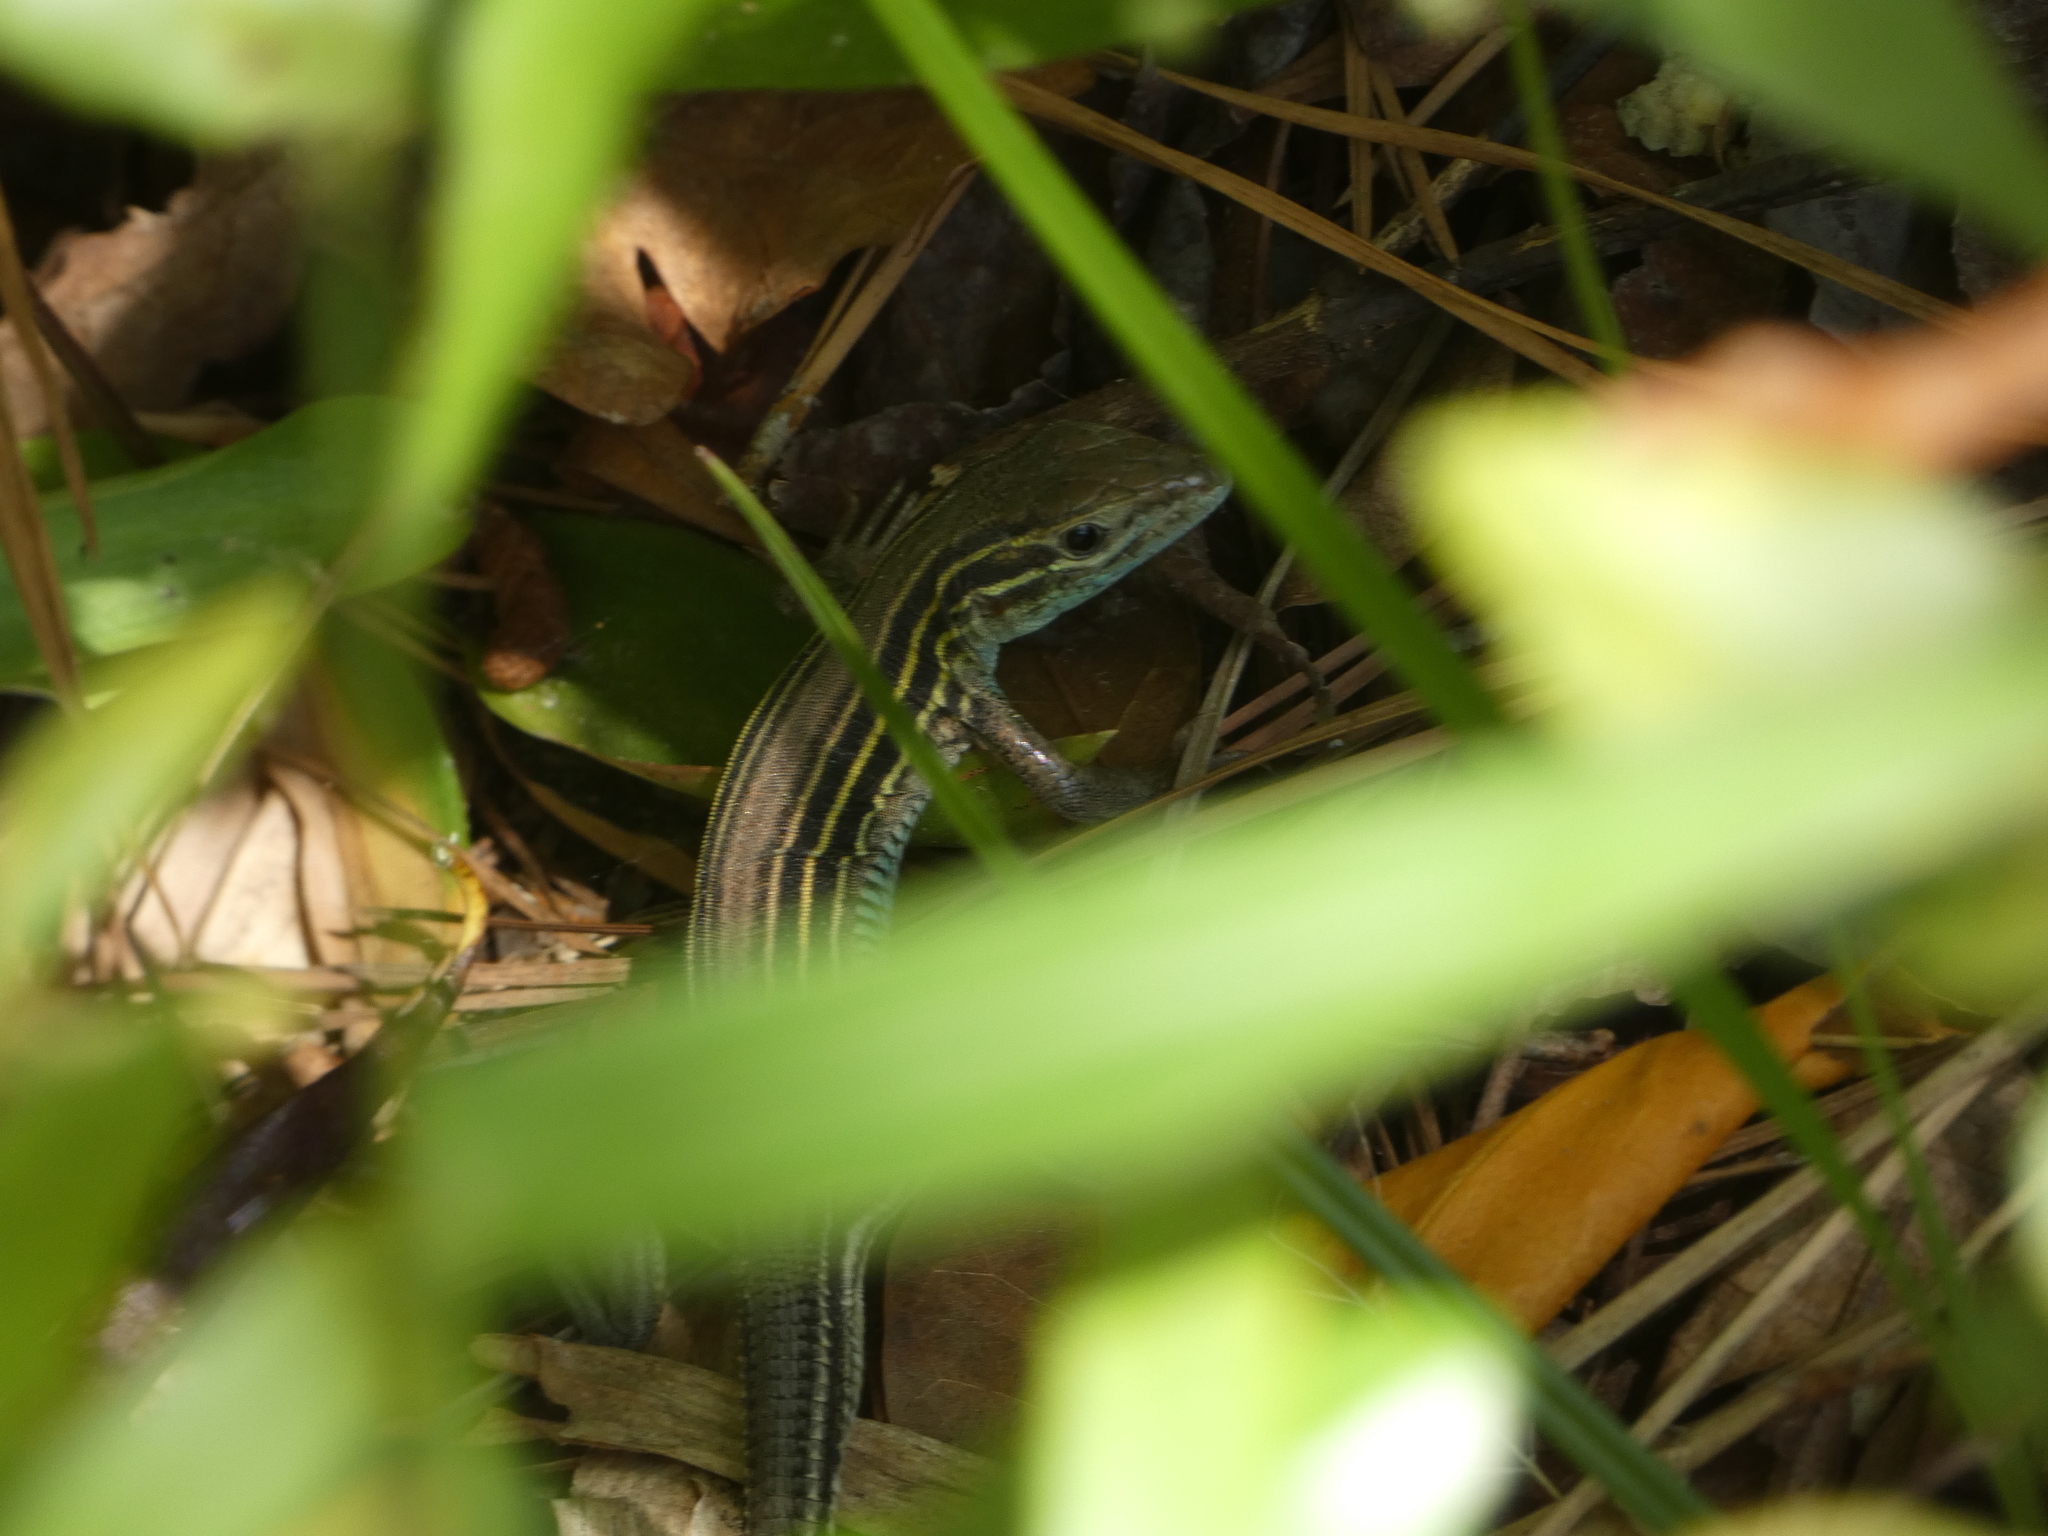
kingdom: Animalia
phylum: Chordata
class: Squamata
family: Teiidae
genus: Aspidoscelis
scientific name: Aspidoscelis sexlineatus
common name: Six-lined racerunner
